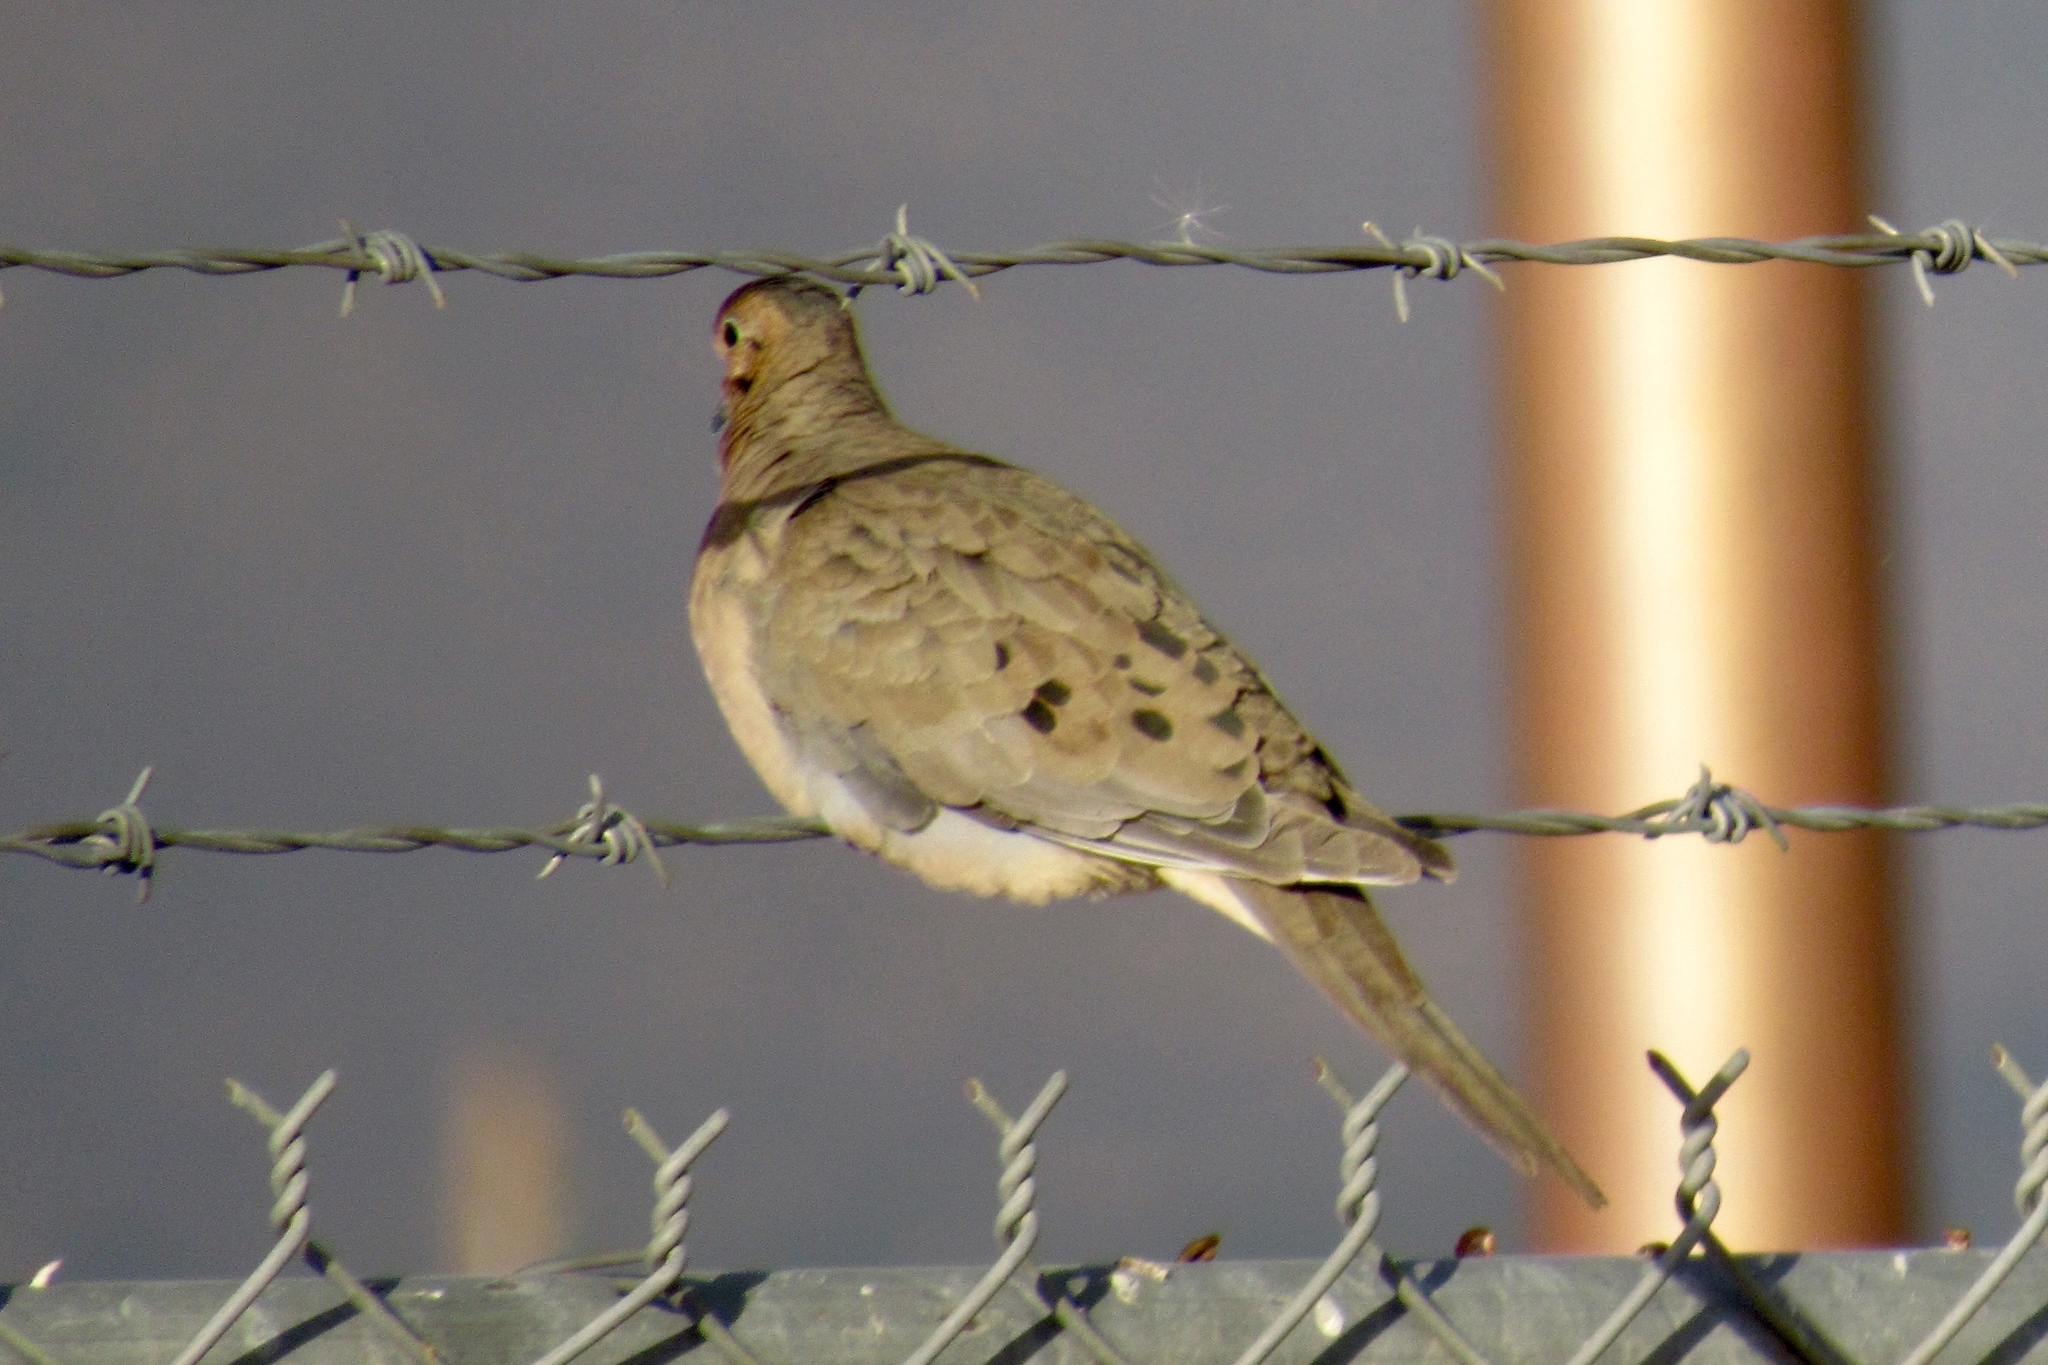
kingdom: Animalia
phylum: Chordata
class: Aves
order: Columbiformes
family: Columbidae
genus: Zenaida
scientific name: Zenaida macroura
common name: Mourning dove
